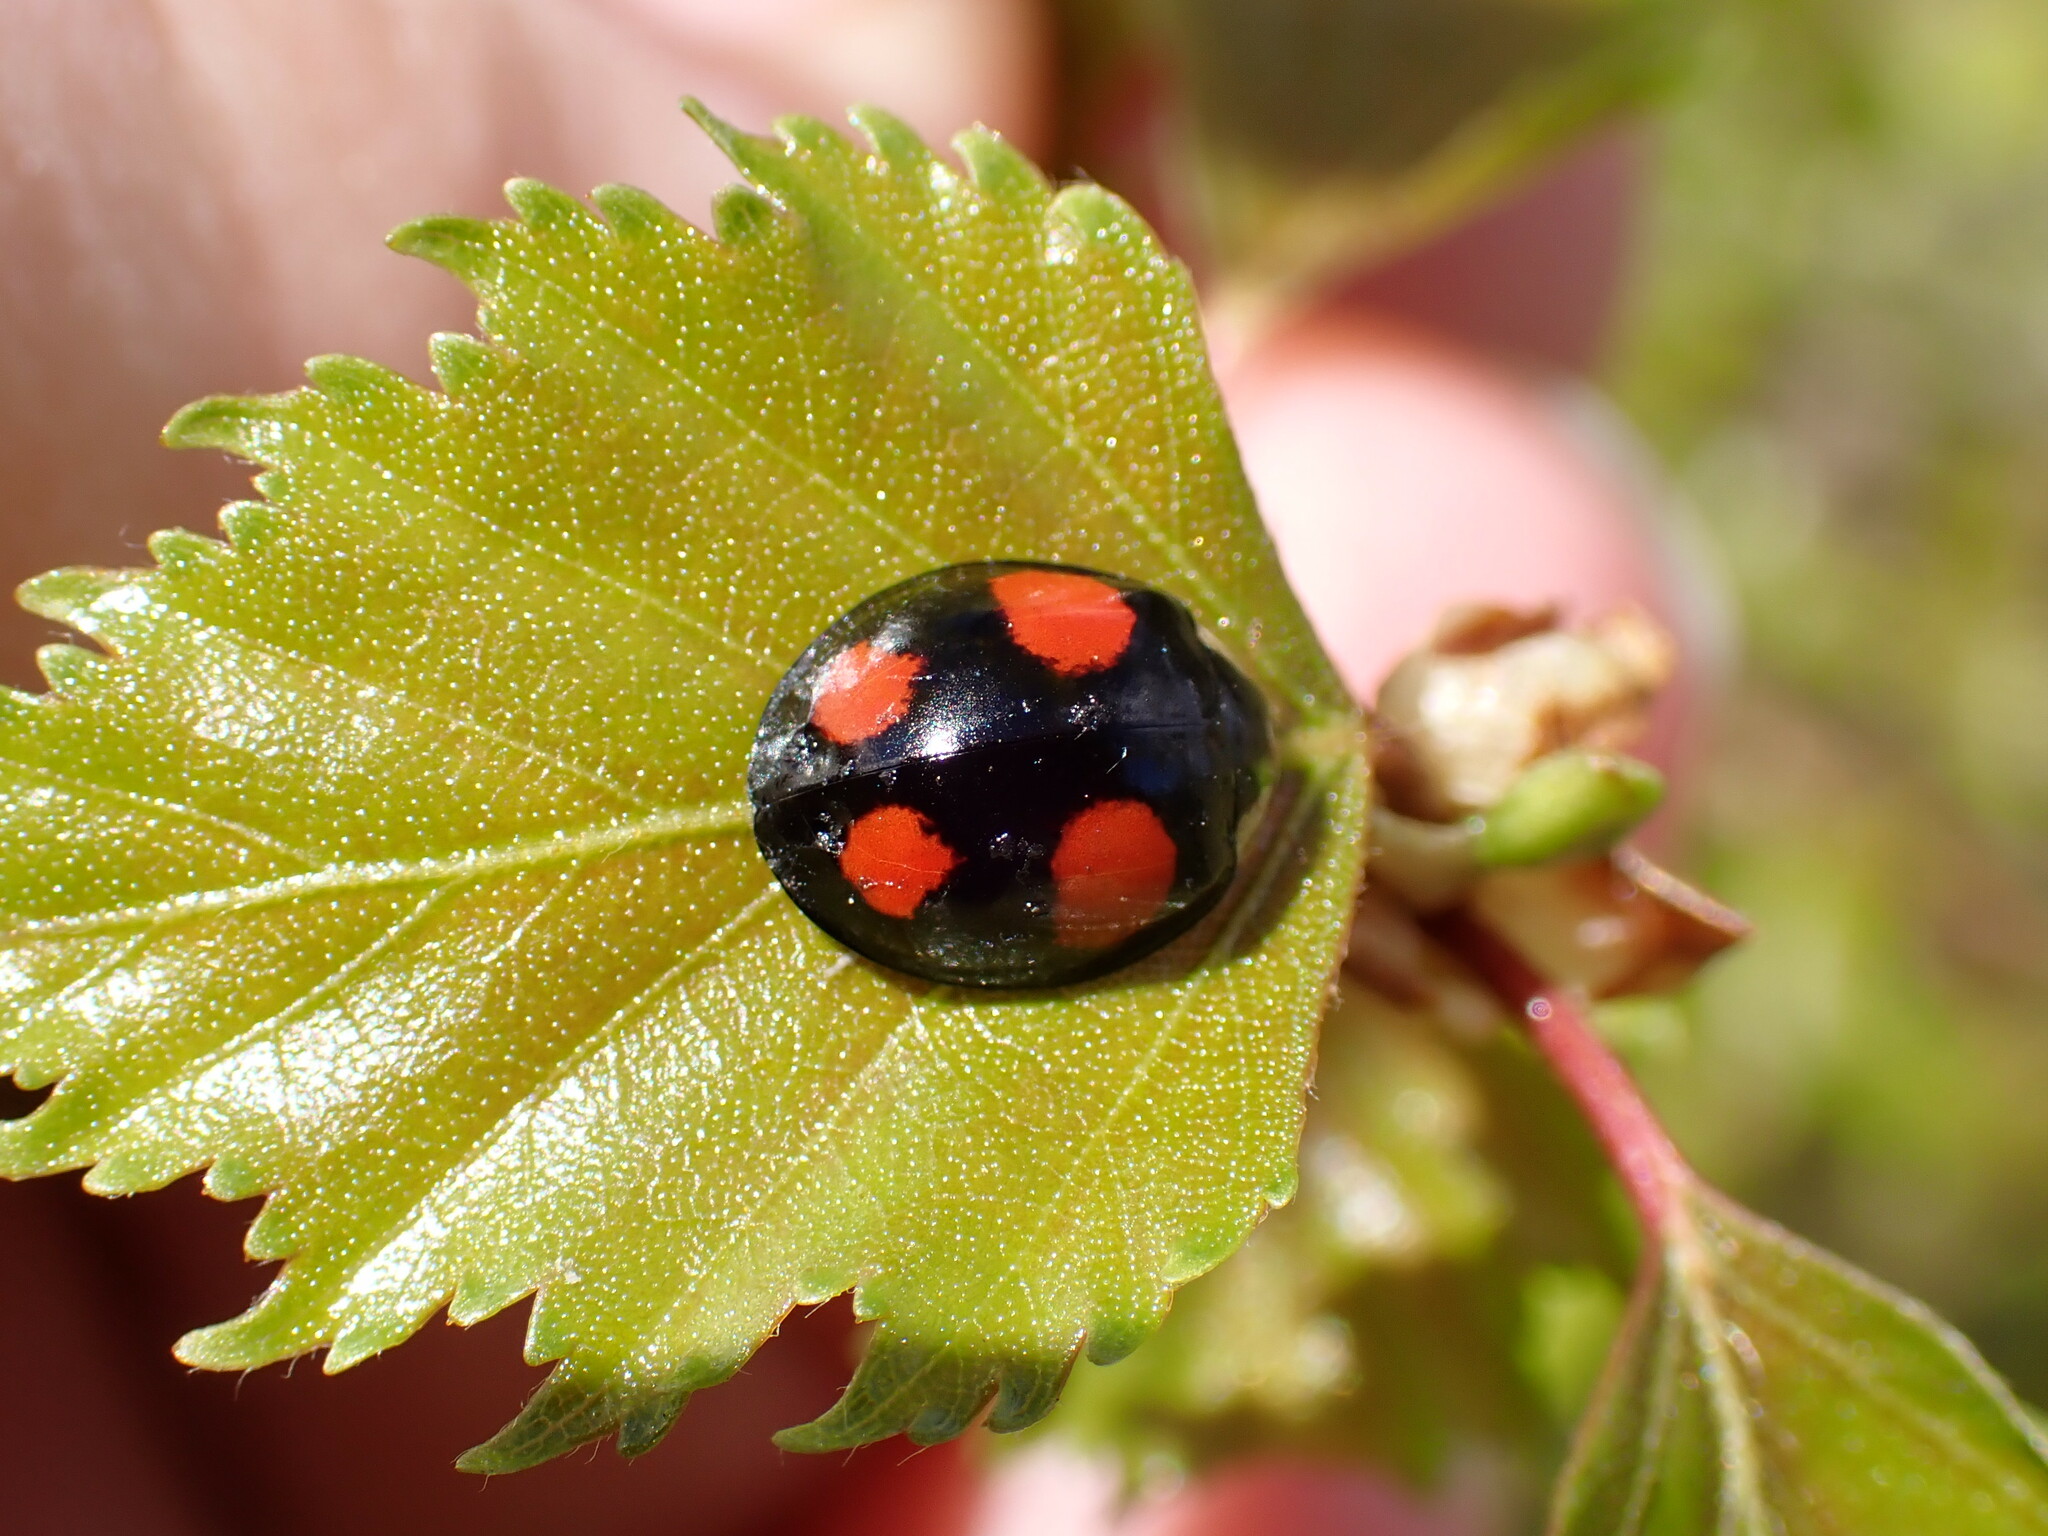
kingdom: Animalia
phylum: Arthropoda
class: Insecta
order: Coleoptera
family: Coccinellidae
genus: Harmonia
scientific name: Harmonia axyridis
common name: Harlequin ladybird
